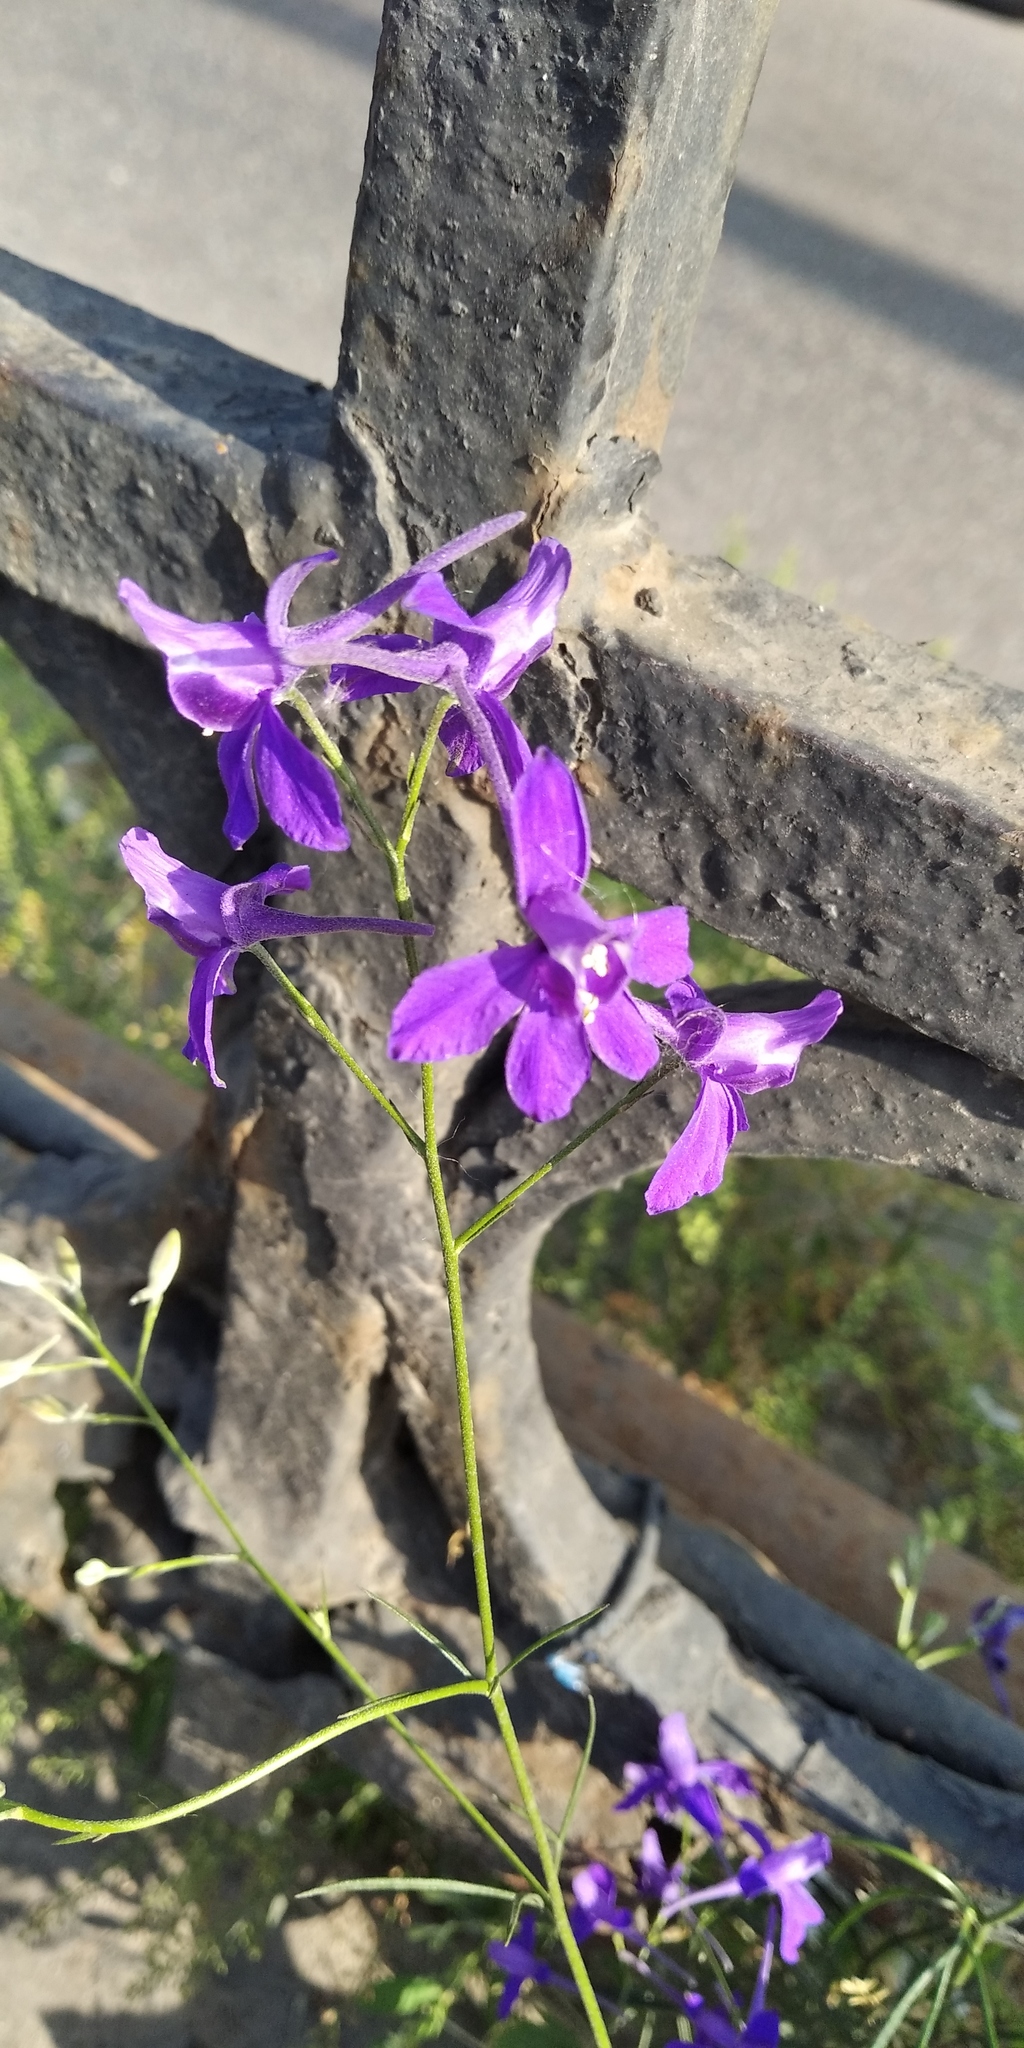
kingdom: Plantae
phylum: Tracheophyta
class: Magnoliopsida
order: Ranunculales
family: Ranunculaceae
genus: Delphinium
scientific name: Delphinium consolida
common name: Branching larkspur
